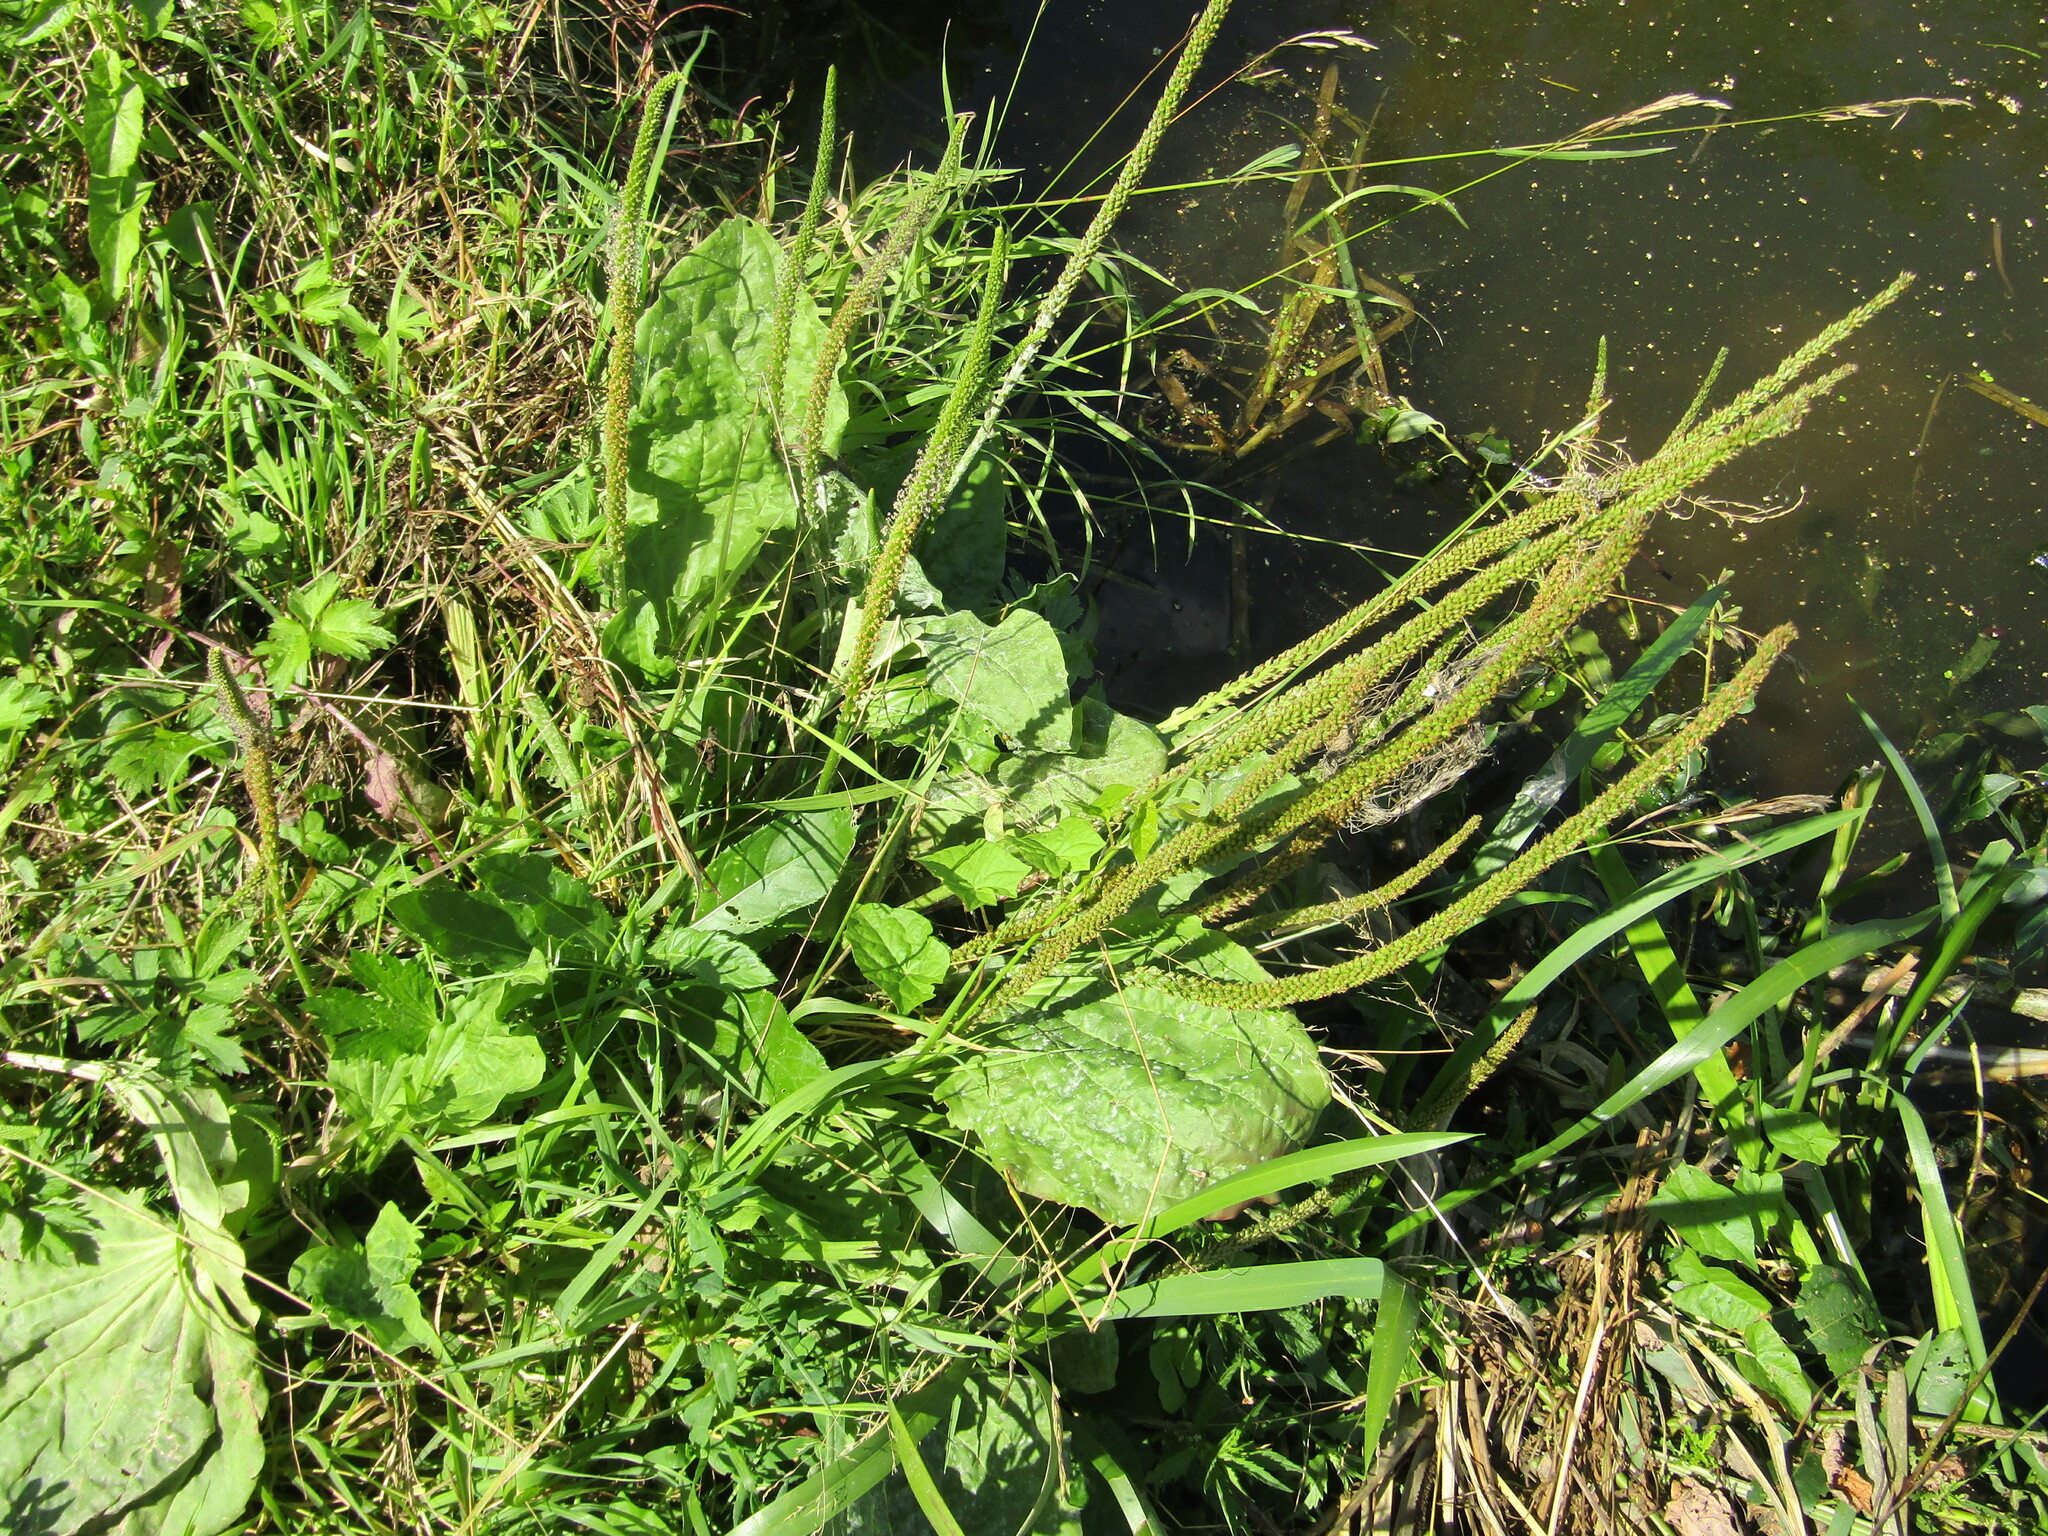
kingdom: Plantae
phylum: Tracheophyta
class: Magnoliopsida
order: Lamiales
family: Plantaginaceae
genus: Plantago
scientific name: Plantago major
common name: Common plantain
